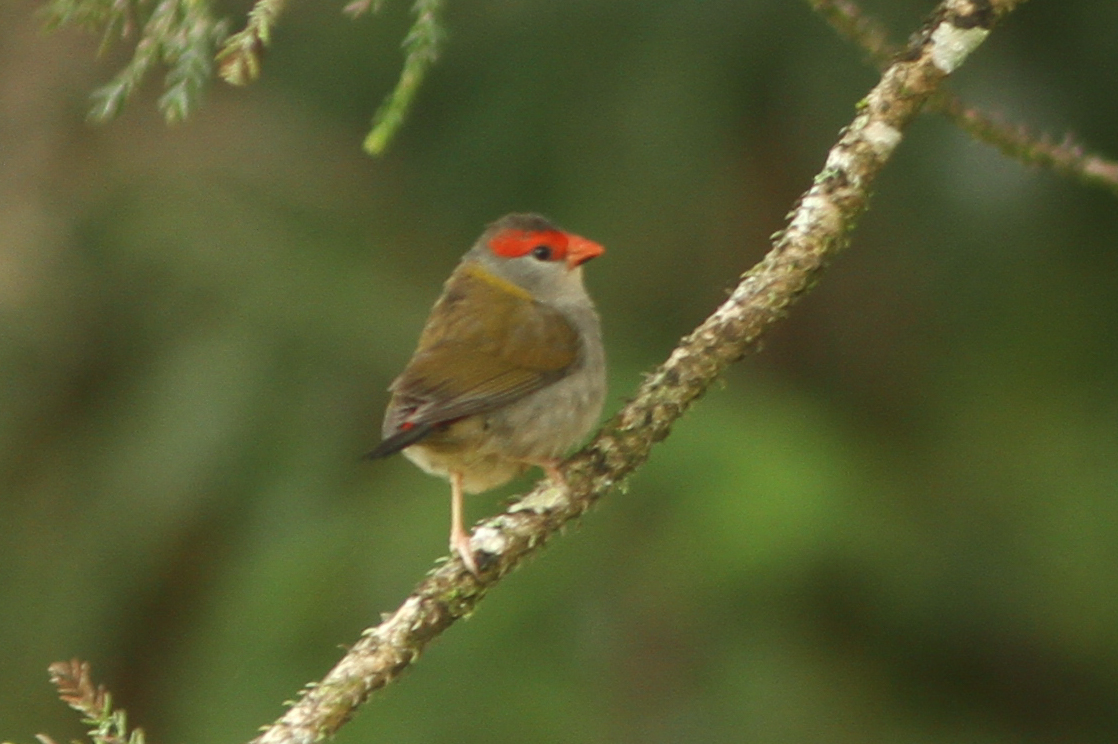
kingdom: Animalia
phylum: Chordata
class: Aves
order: Passeriformes
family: Estrildidae
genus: Neochmia
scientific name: Neochmia temporalis
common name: Red-browed finch
